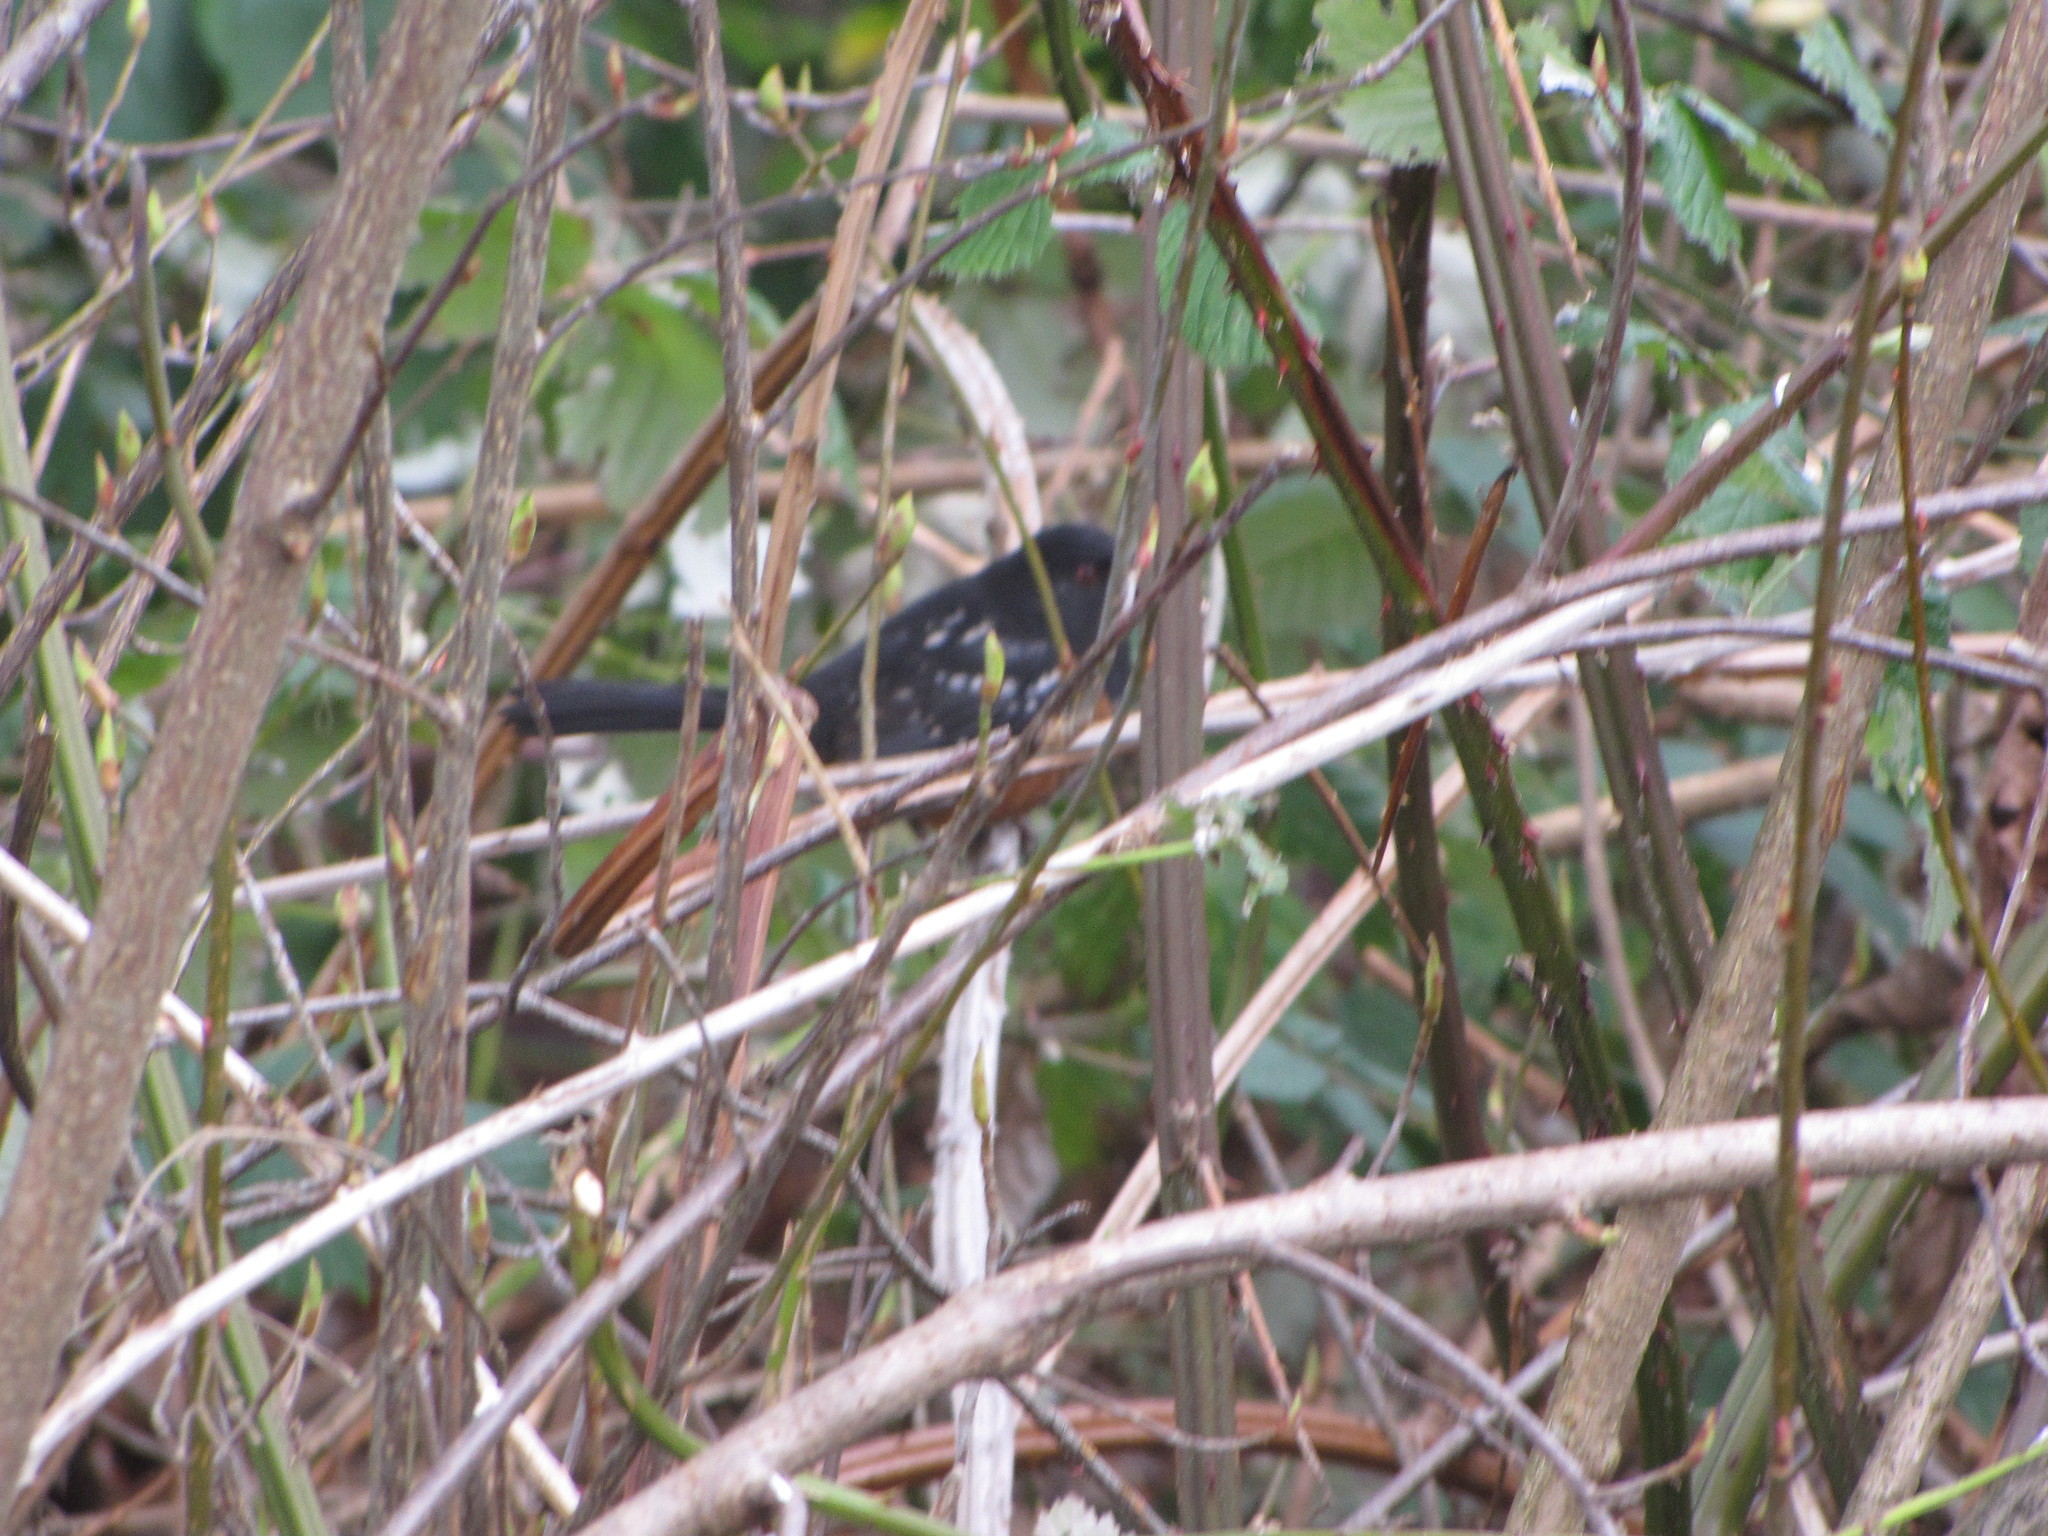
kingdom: Animalia
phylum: Chordata
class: Aves
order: Passeriformes
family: Passerellidae
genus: Pipilo
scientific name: Pipilo maculatus
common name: Spotted towhee
